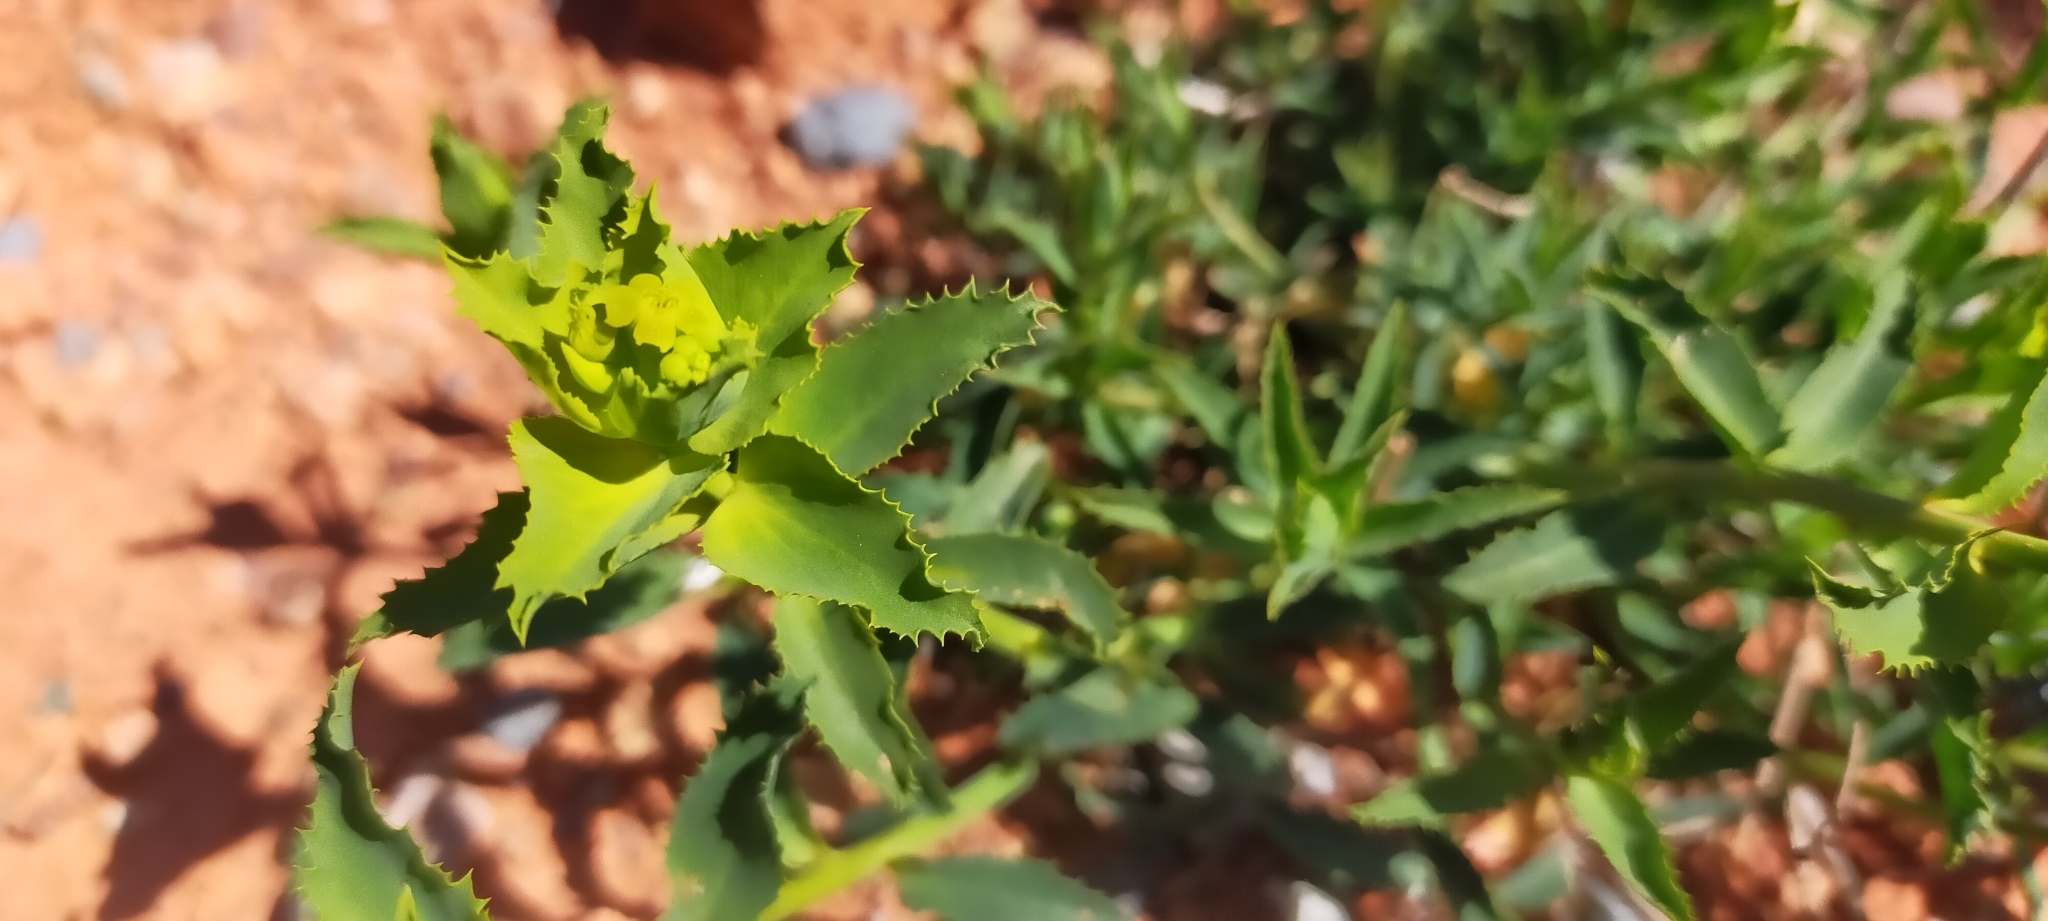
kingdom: Plantae
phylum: Tracheophyta
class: Magnoliopsida
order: Malpighiales
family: Euphorbiaceae
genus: Euphorbia
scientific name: Euphorbia serrata
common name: Serrate spurge
